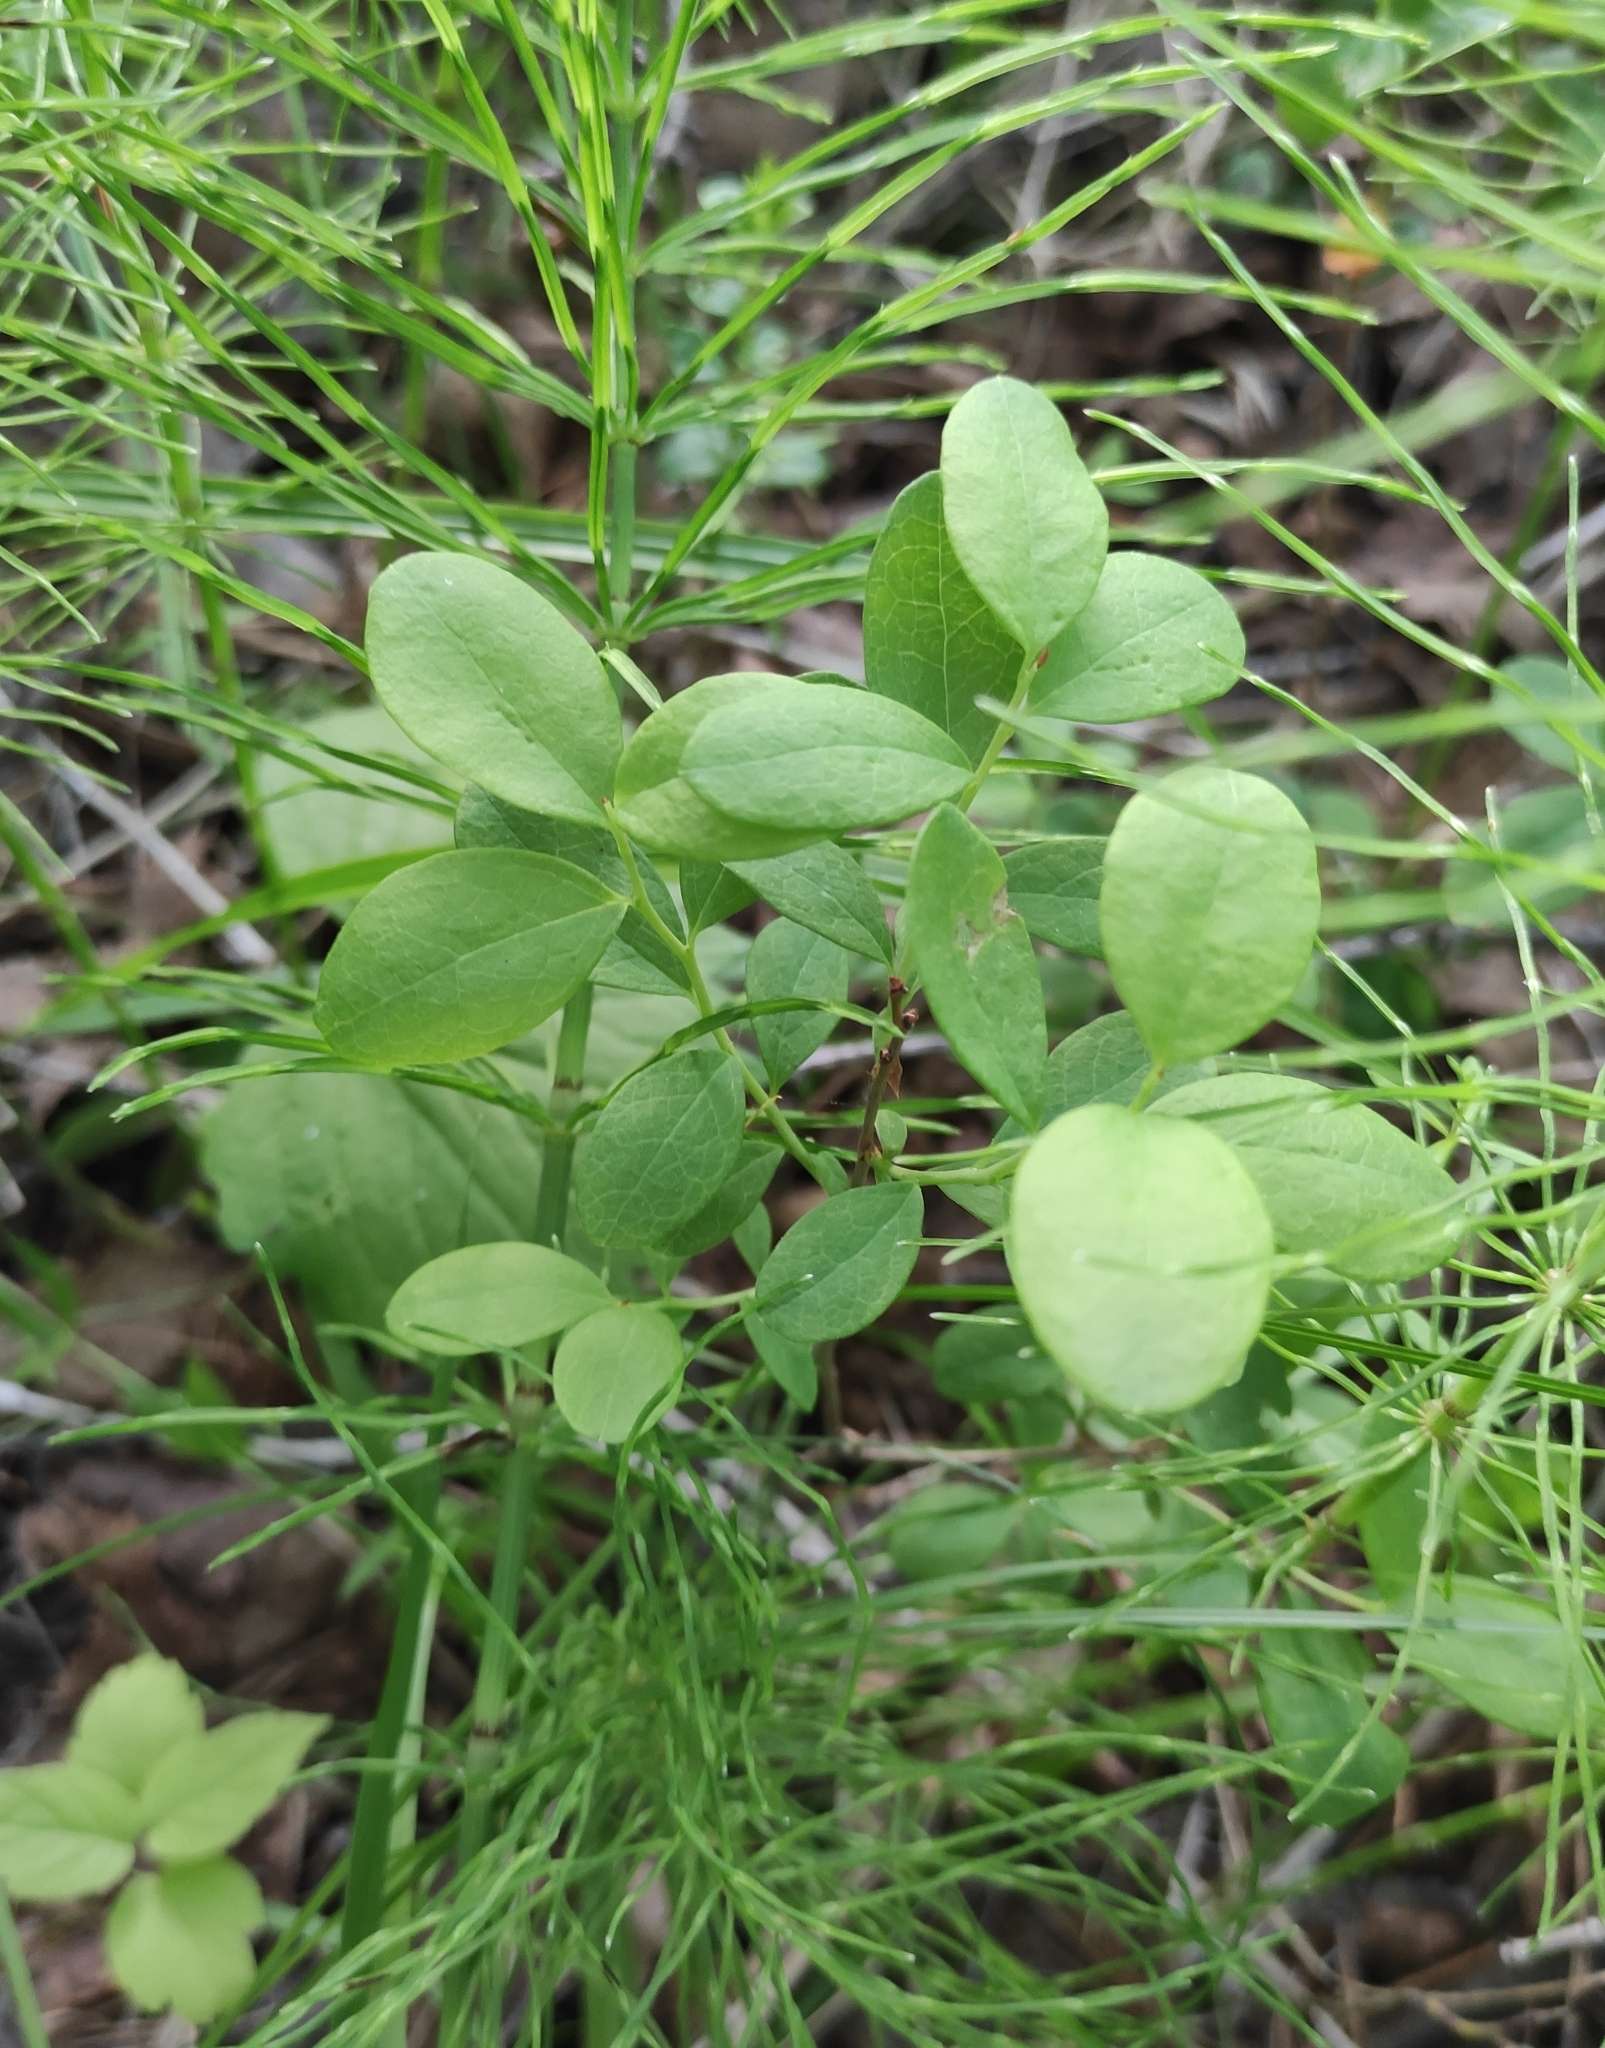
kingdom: Plantae
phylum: Tracheophyta
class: Magnoliopsida
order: Ericales
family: Ericaceae
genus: Vaccinium
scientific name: Vaccinium uliginosum
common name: Bog bilberry
